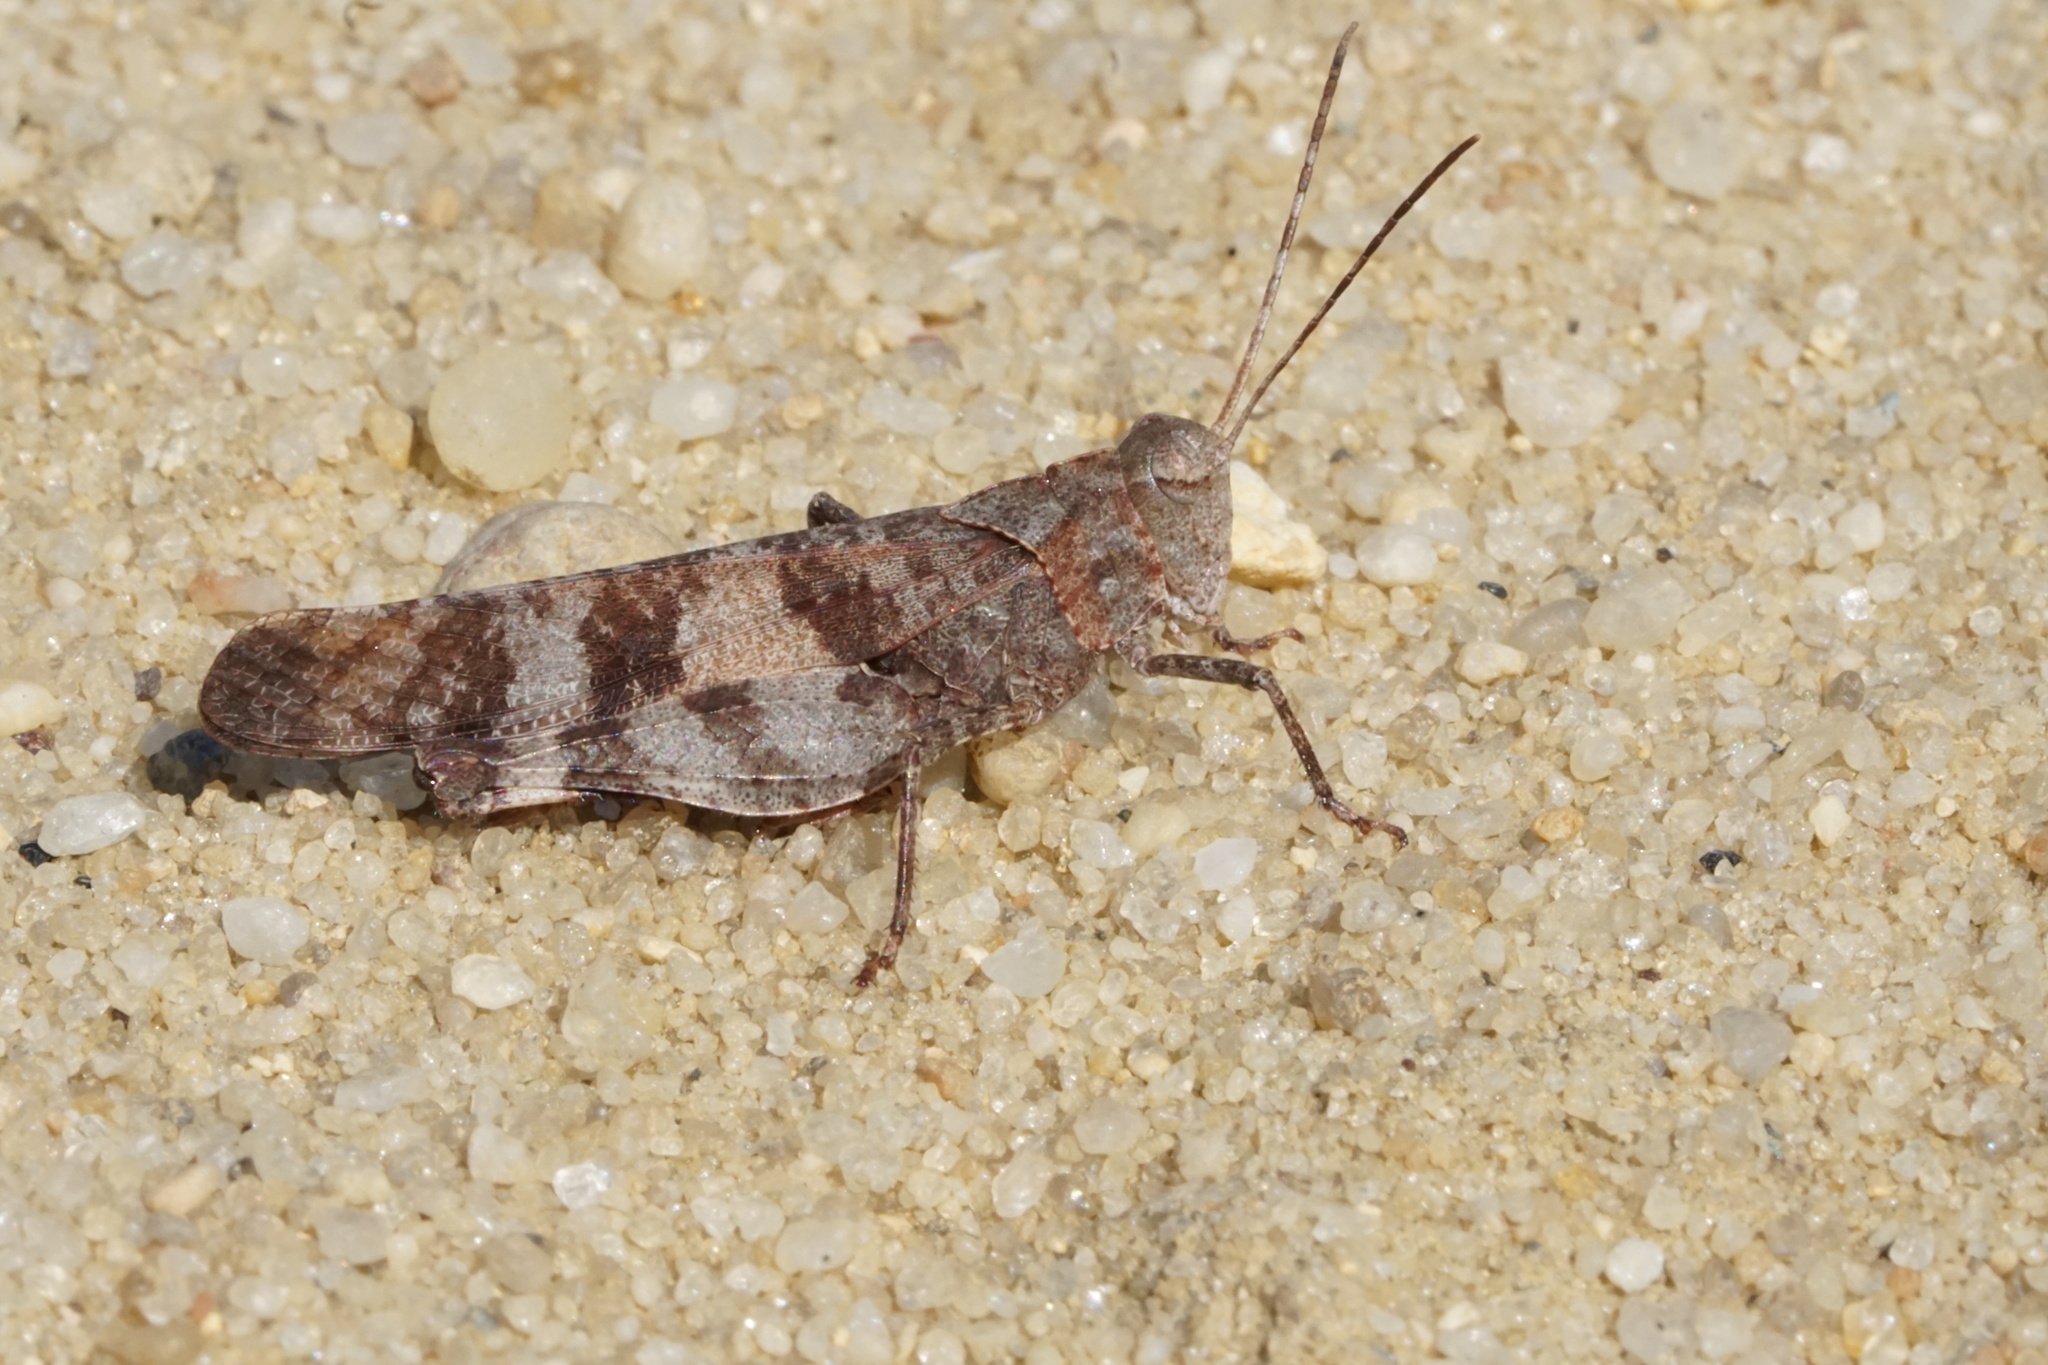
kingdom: Animalia
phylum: Arthropoda
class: Insecta
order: Orthoptera
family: Acrididae
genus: Spharagemon
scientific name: Spharagemon bolli
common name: Boll's grasshopper
